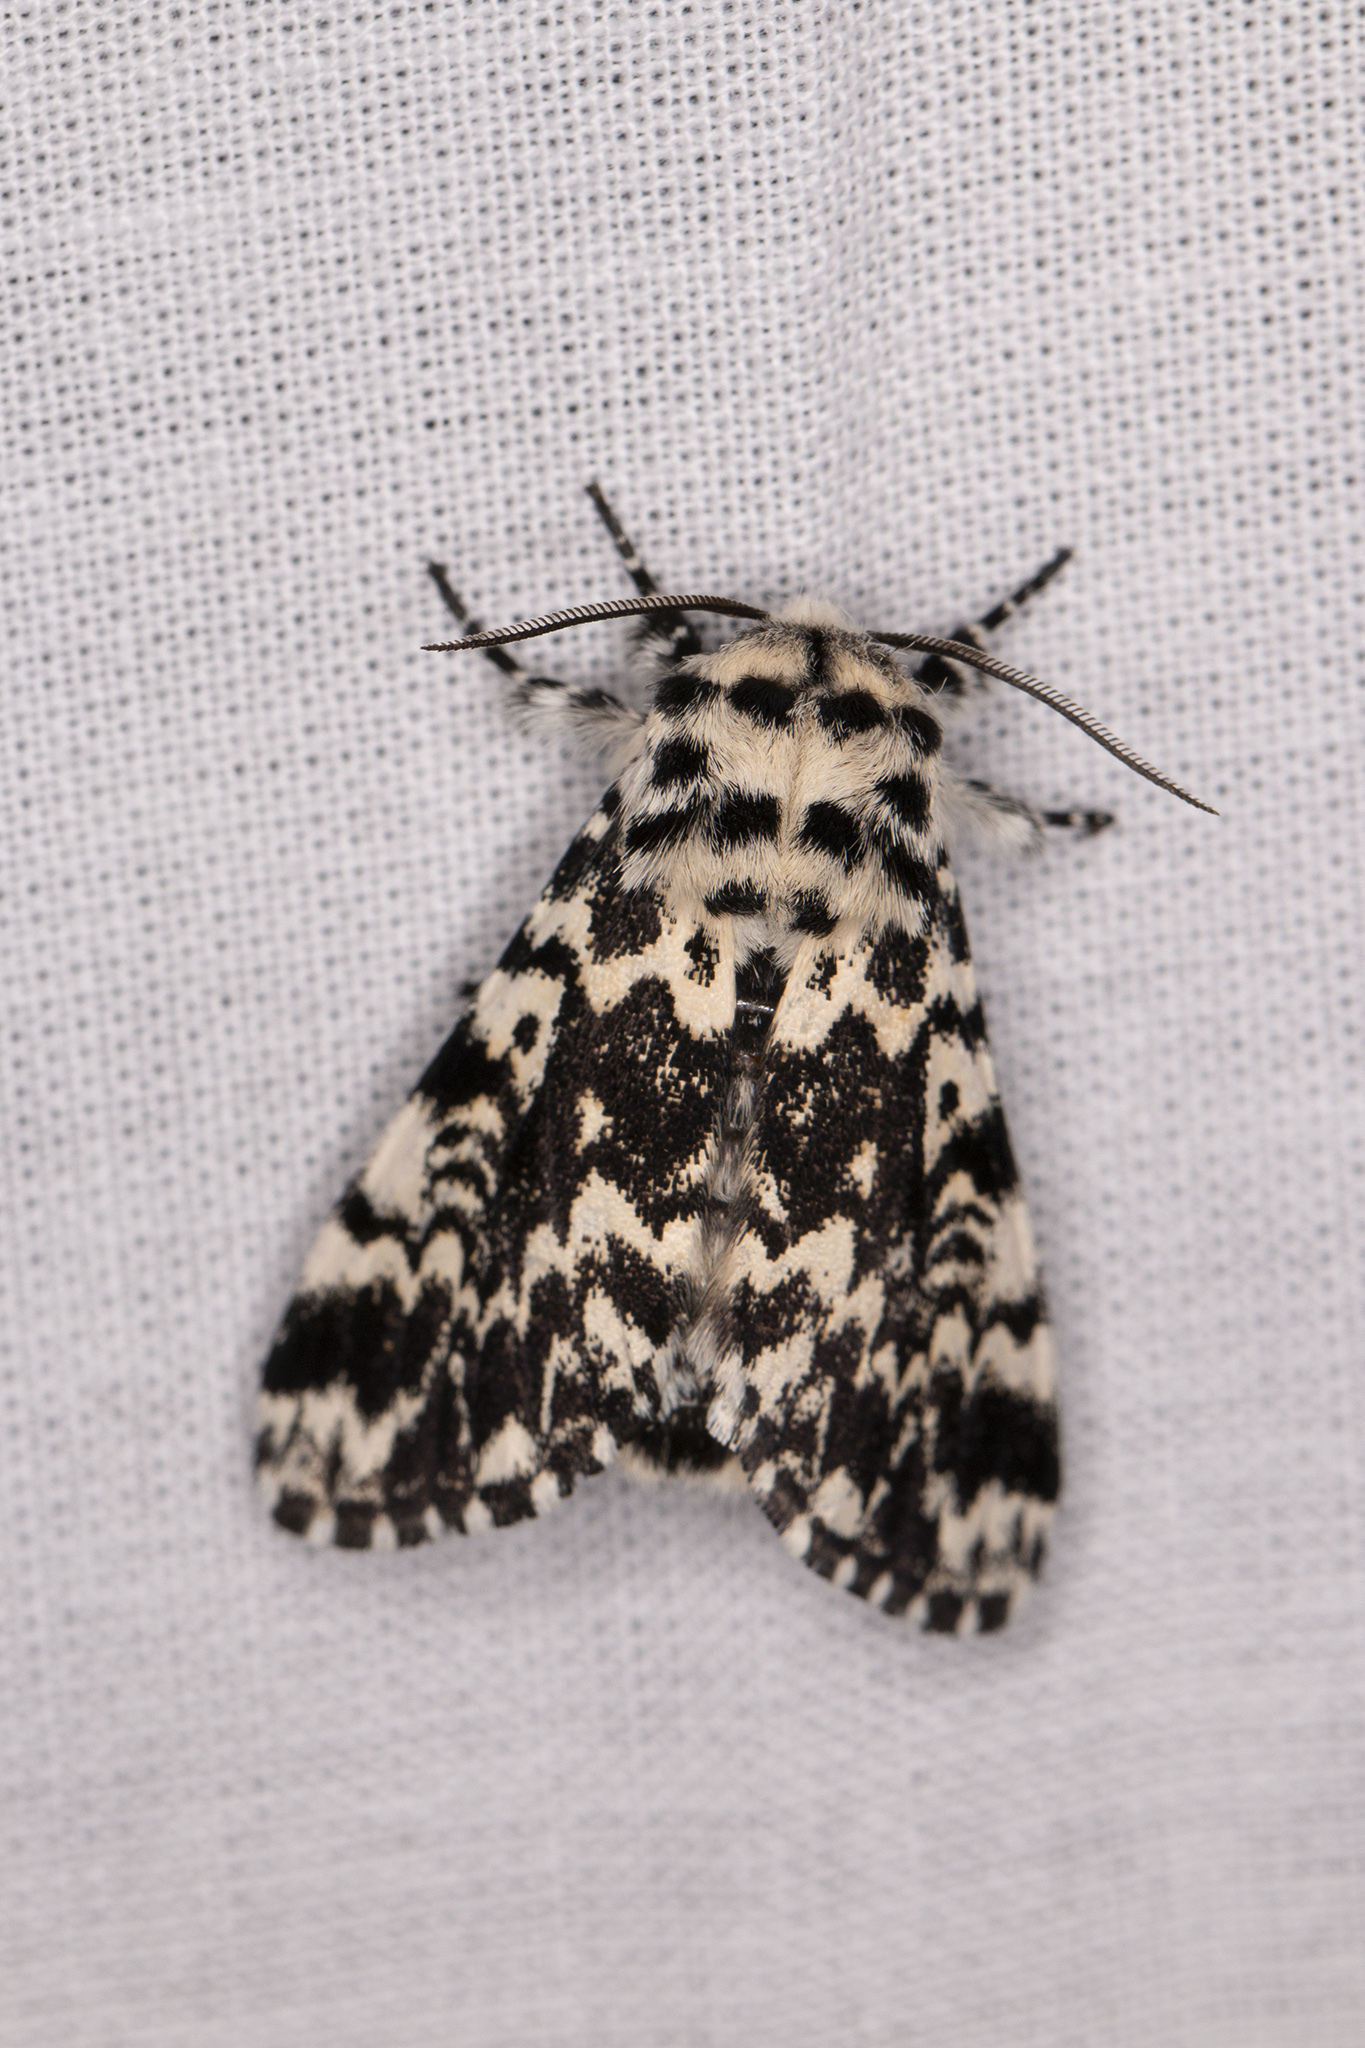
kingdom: Animalia
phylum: Arthropoda
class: Insecta
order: Lepidoptera
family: Noctuidae
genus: Panthea
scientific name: Panthea coenobita
